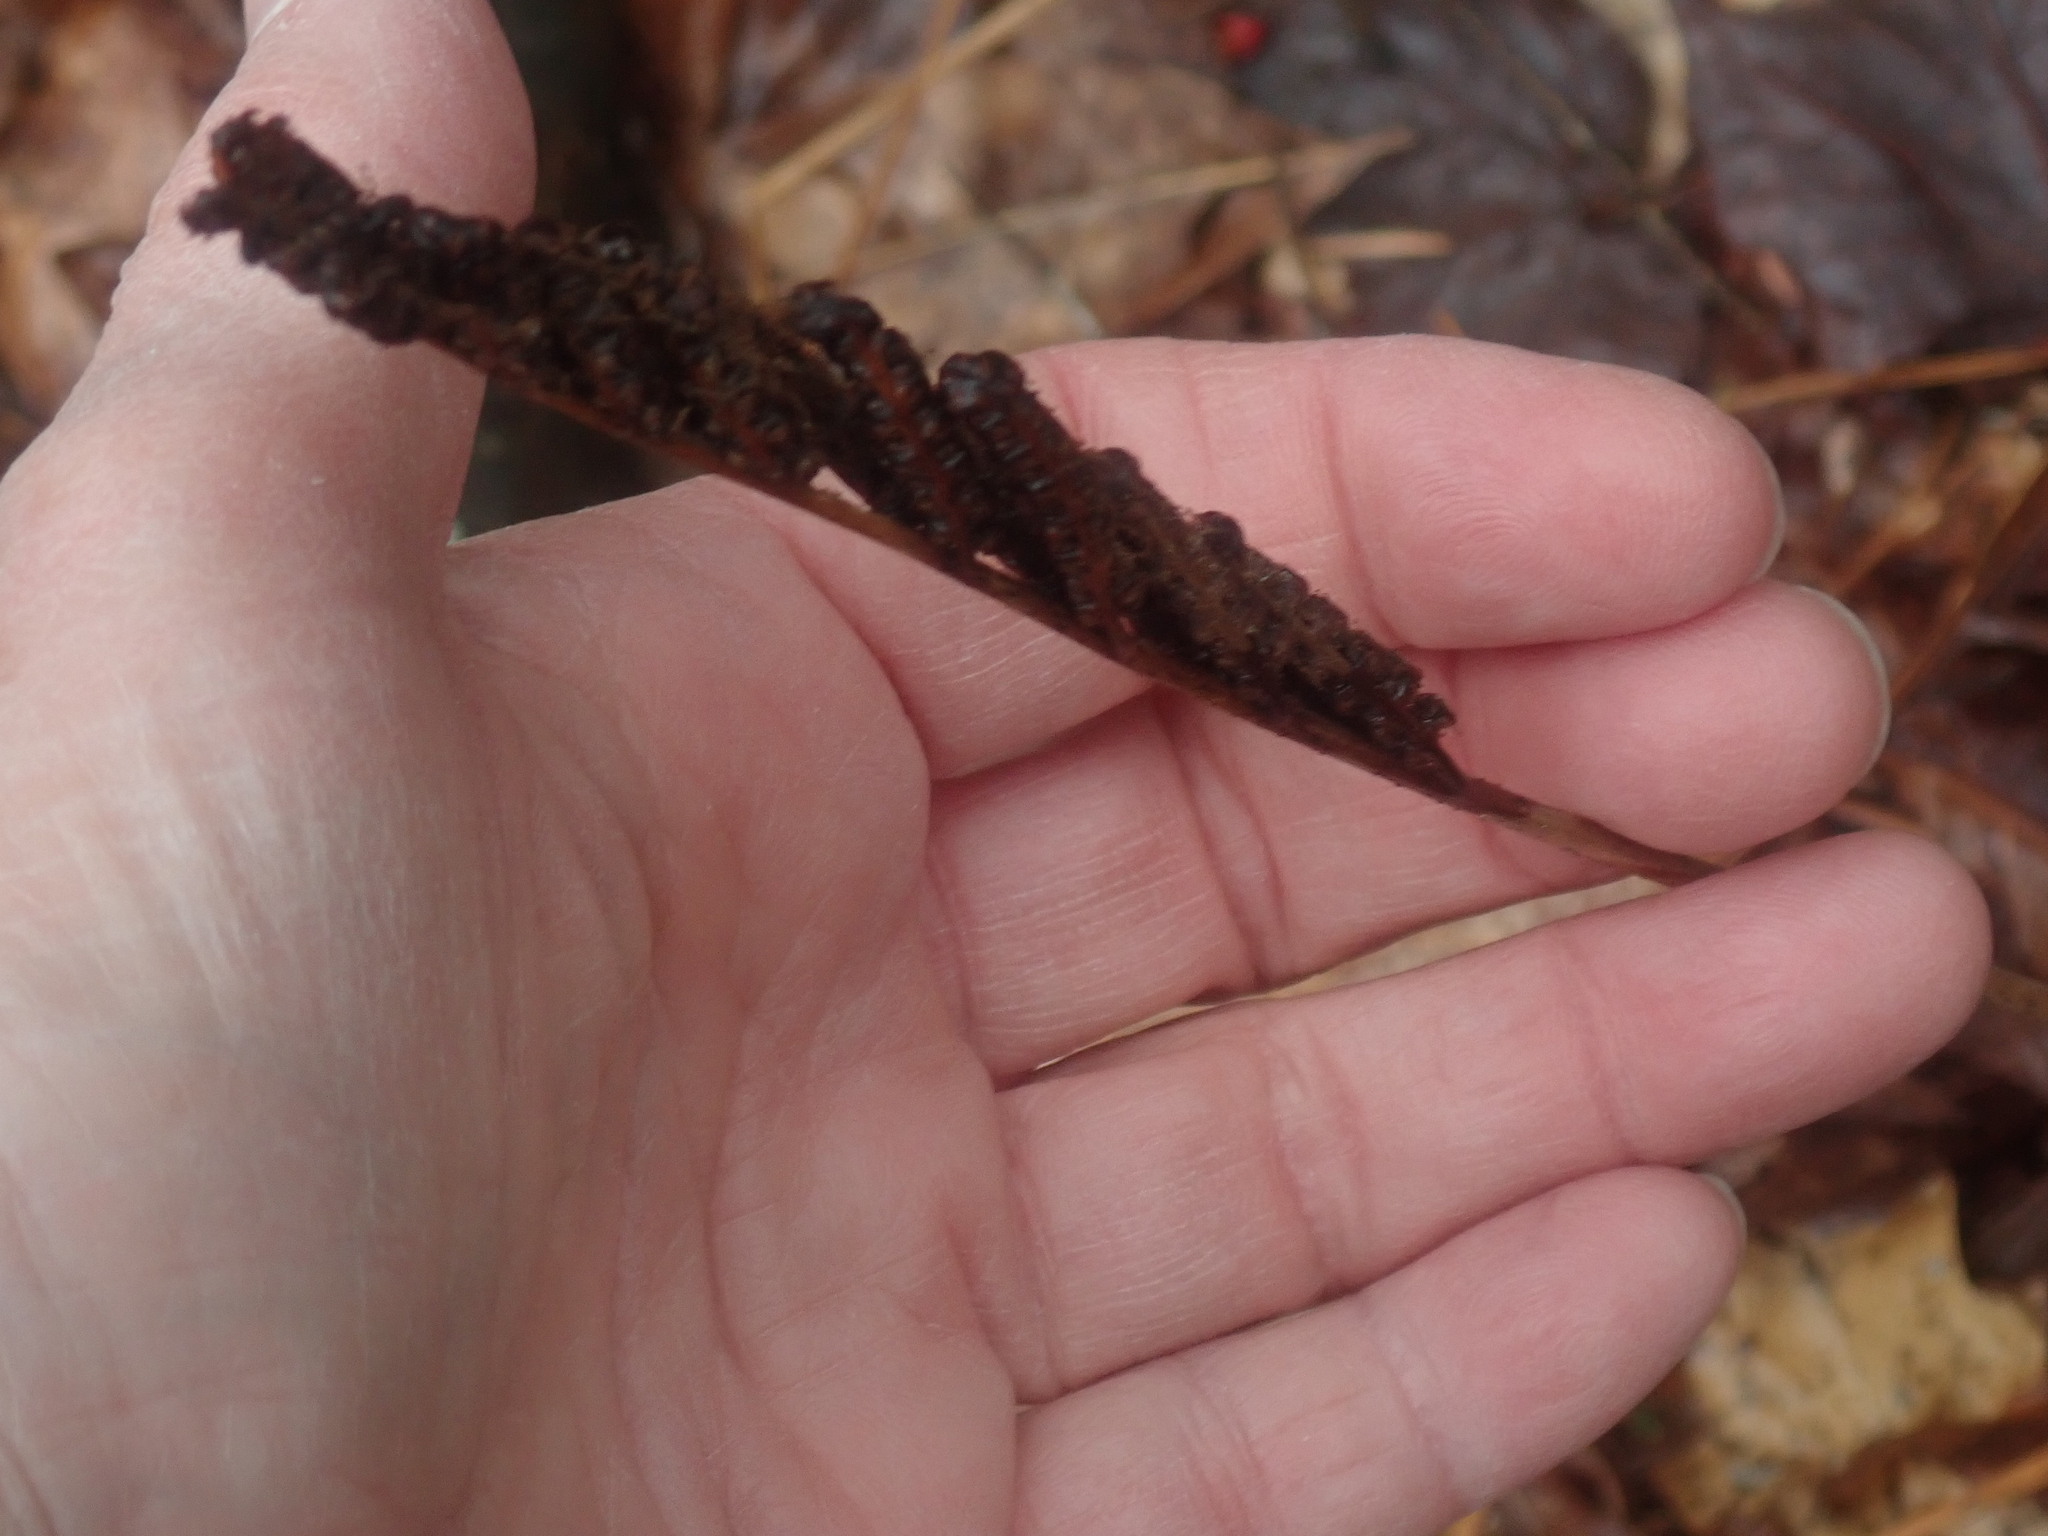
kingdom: Plantae
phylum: Tracheophyta
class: Polypodiopsida
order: Polypodiales
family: Onocleaceae
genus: Onoclea
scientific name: Onoclea sensibilis
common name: Sensitive fern
